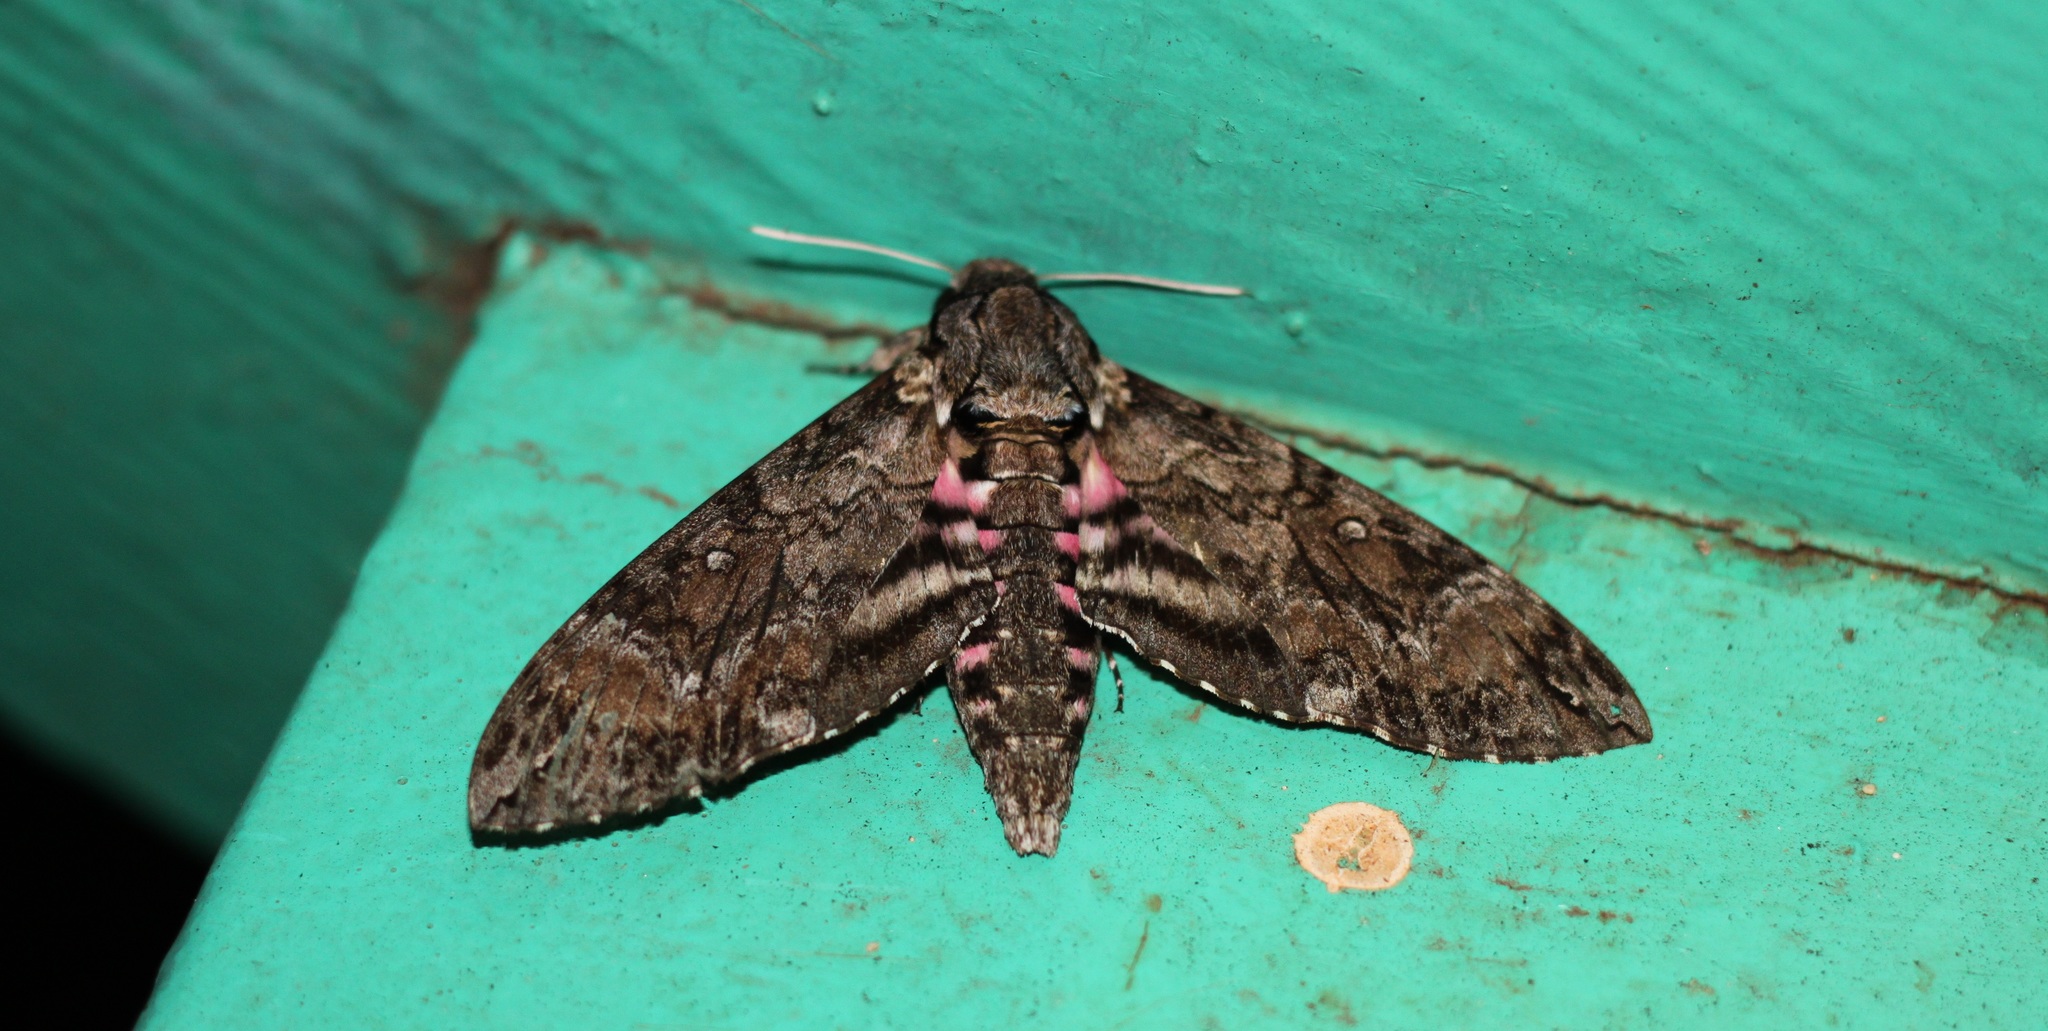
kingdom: Animalia
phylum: Arthropoda
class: Insecta
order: Lepidoptera
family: Sphingidae
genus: Agrius
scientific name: Agrius cingulata
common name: Pink-spotted hawkmoth
